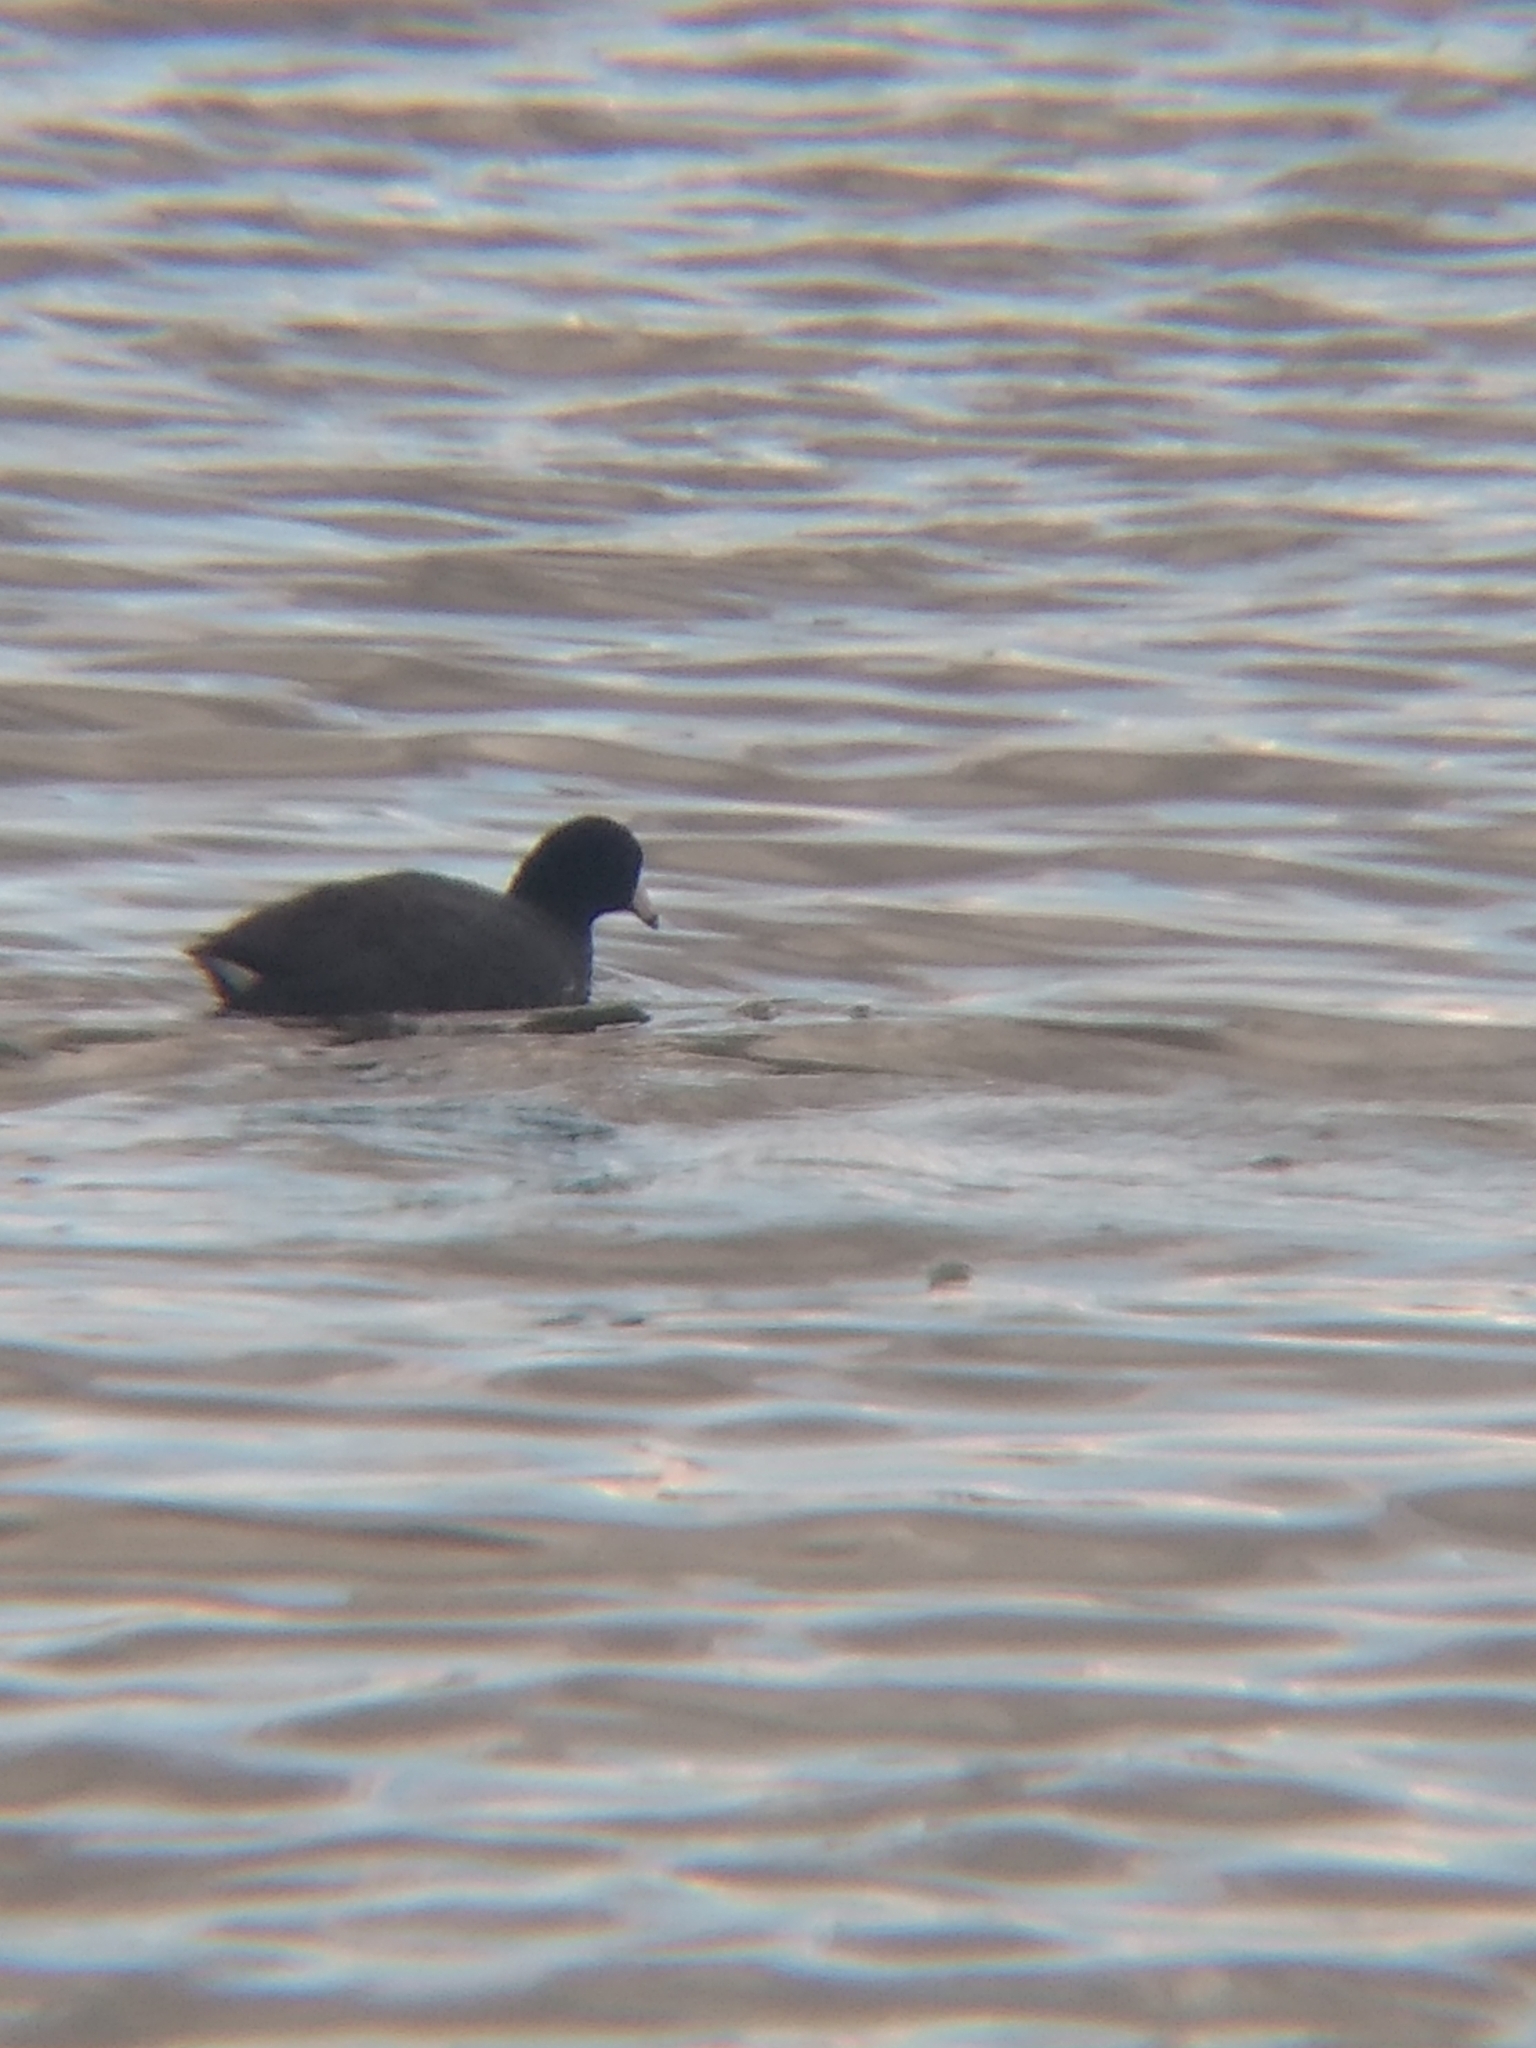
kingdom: Animalia
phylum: Chordata
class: Aves
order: Gruiformes
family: Rallidae
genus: Fulica
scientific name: Fulica americana
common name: American coot
